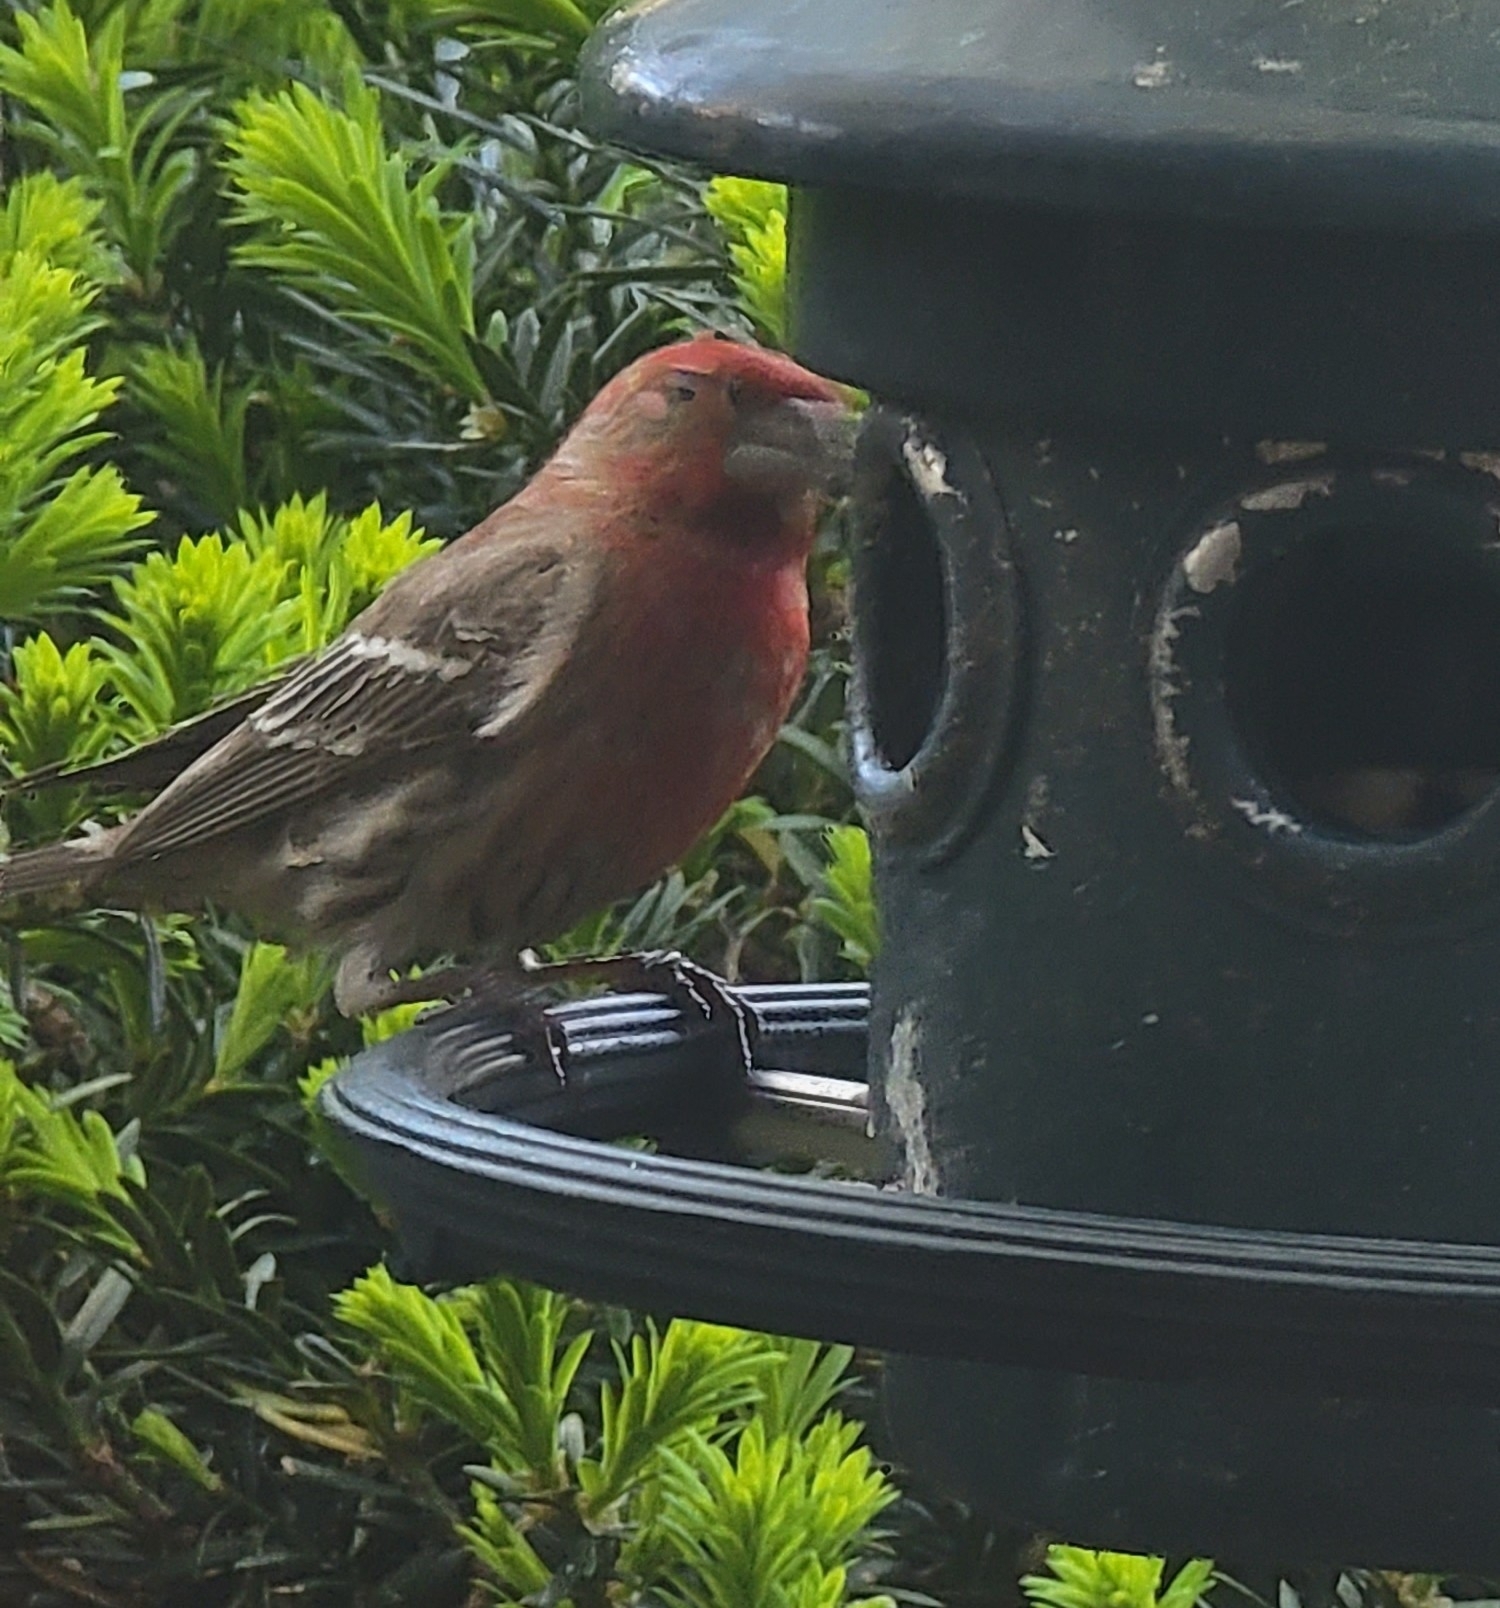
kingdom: Animalia
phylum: Chordata
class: Aves
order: Passeriformes
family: Fringillidae
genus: Haemorhous
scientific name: Haemorhous mexicanus
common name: House finch
